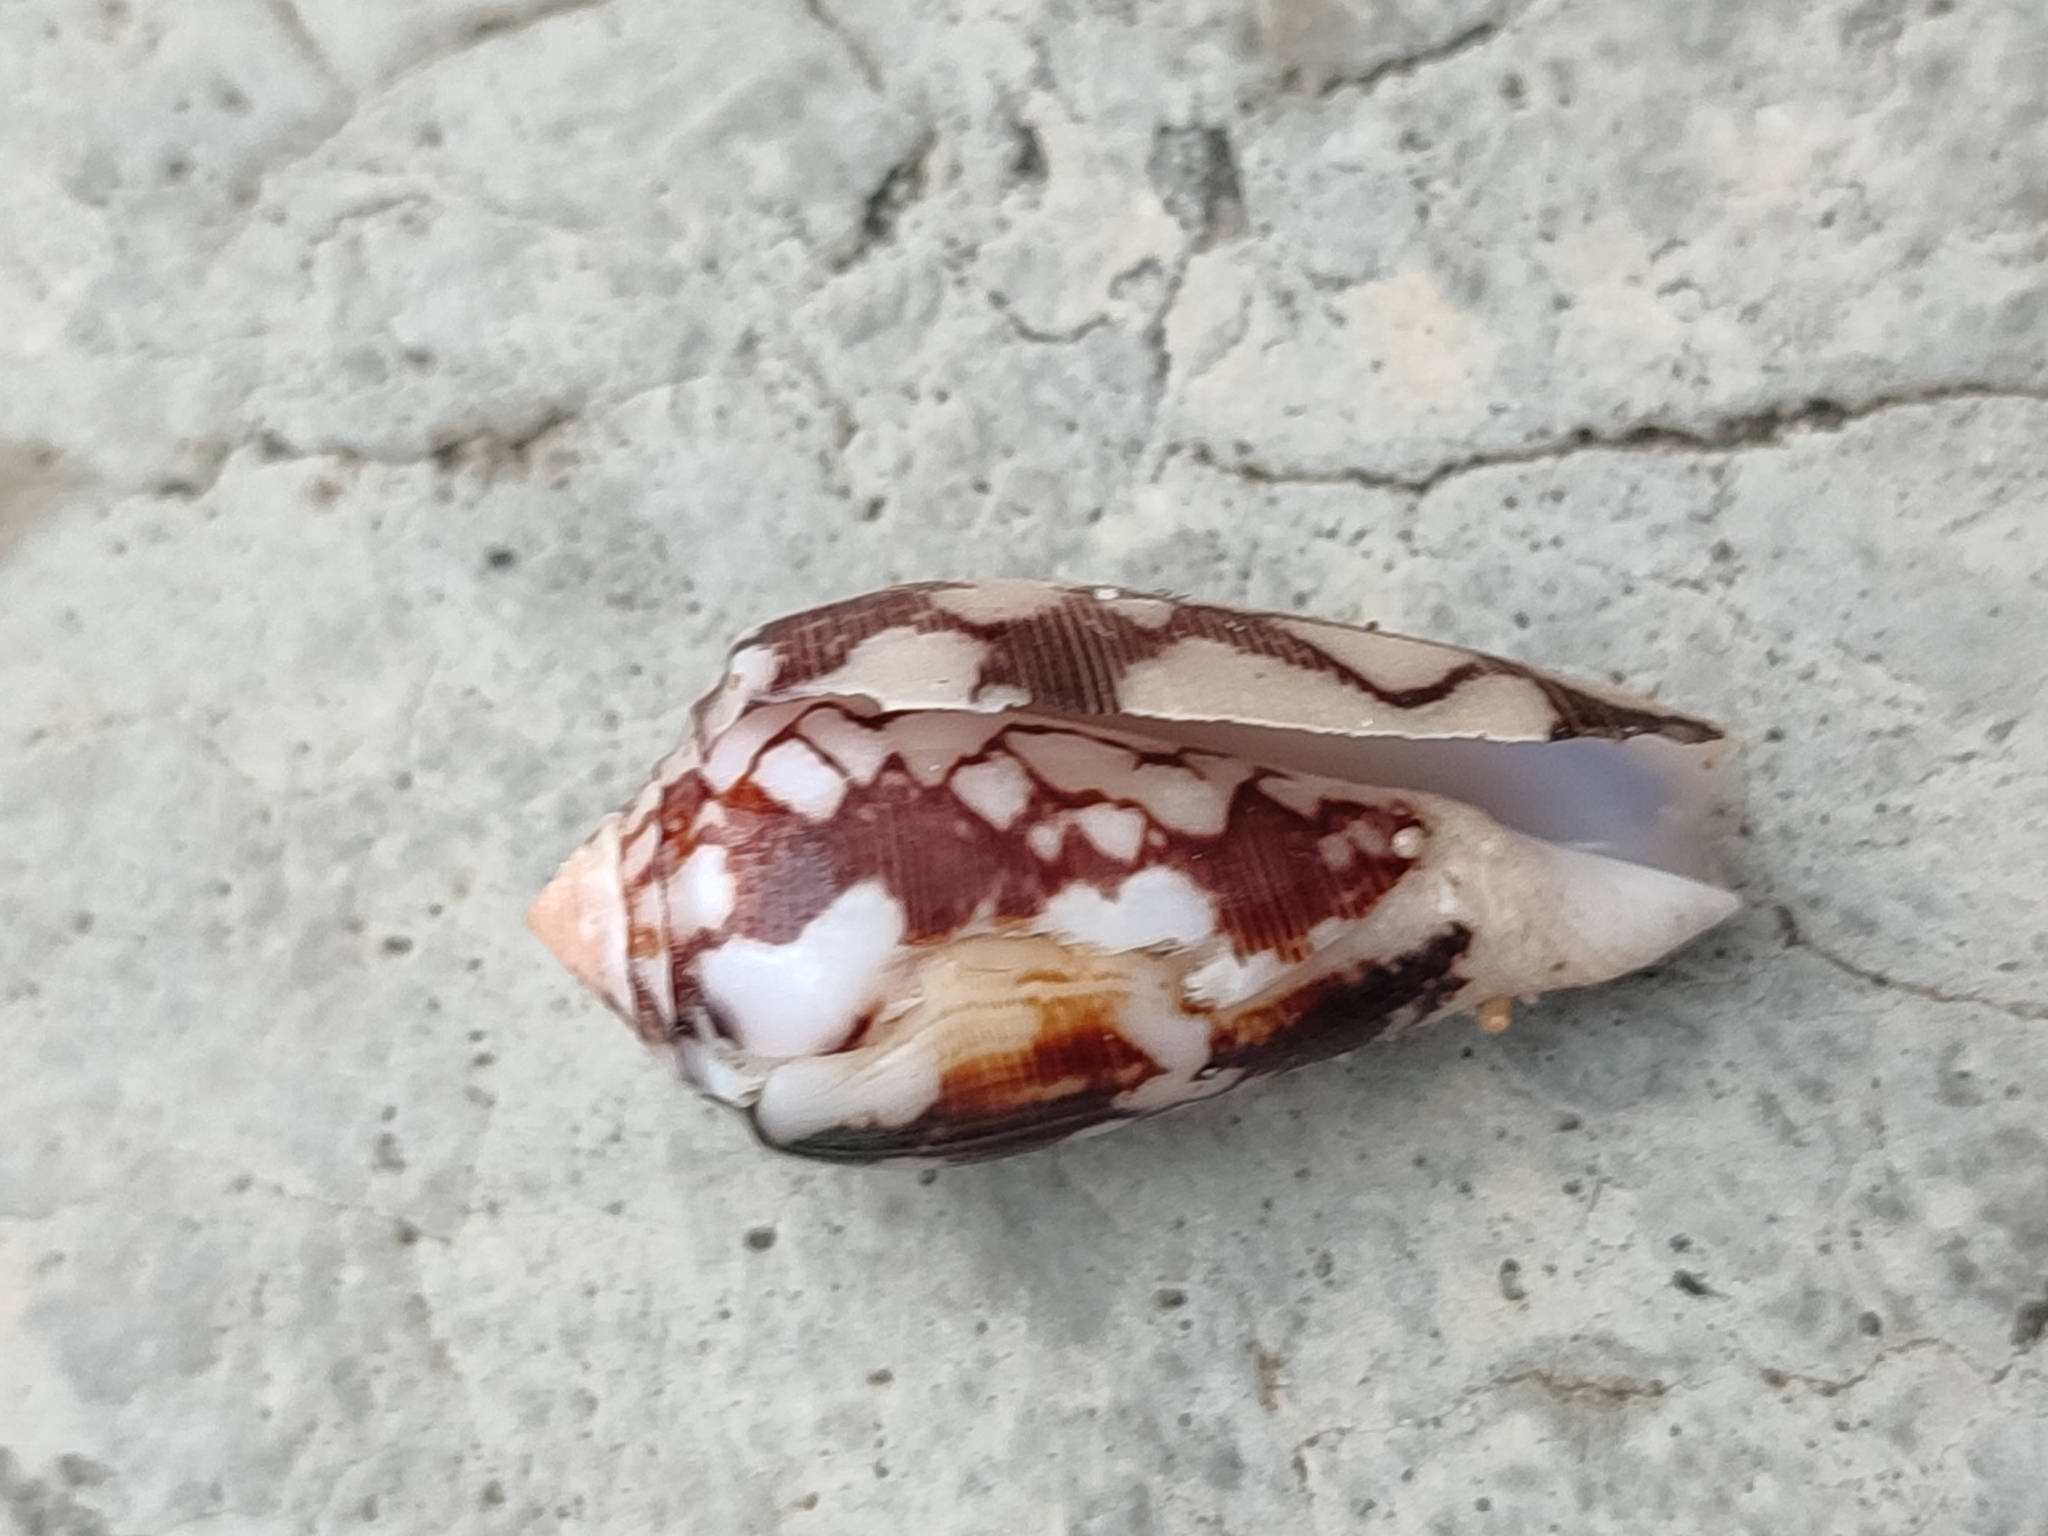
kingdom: Animalia
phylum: Mollusca
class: Gastropoda
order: Neogastropoda
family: Conidae
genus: Conus
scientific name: Conus striatus
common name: Striated cone
